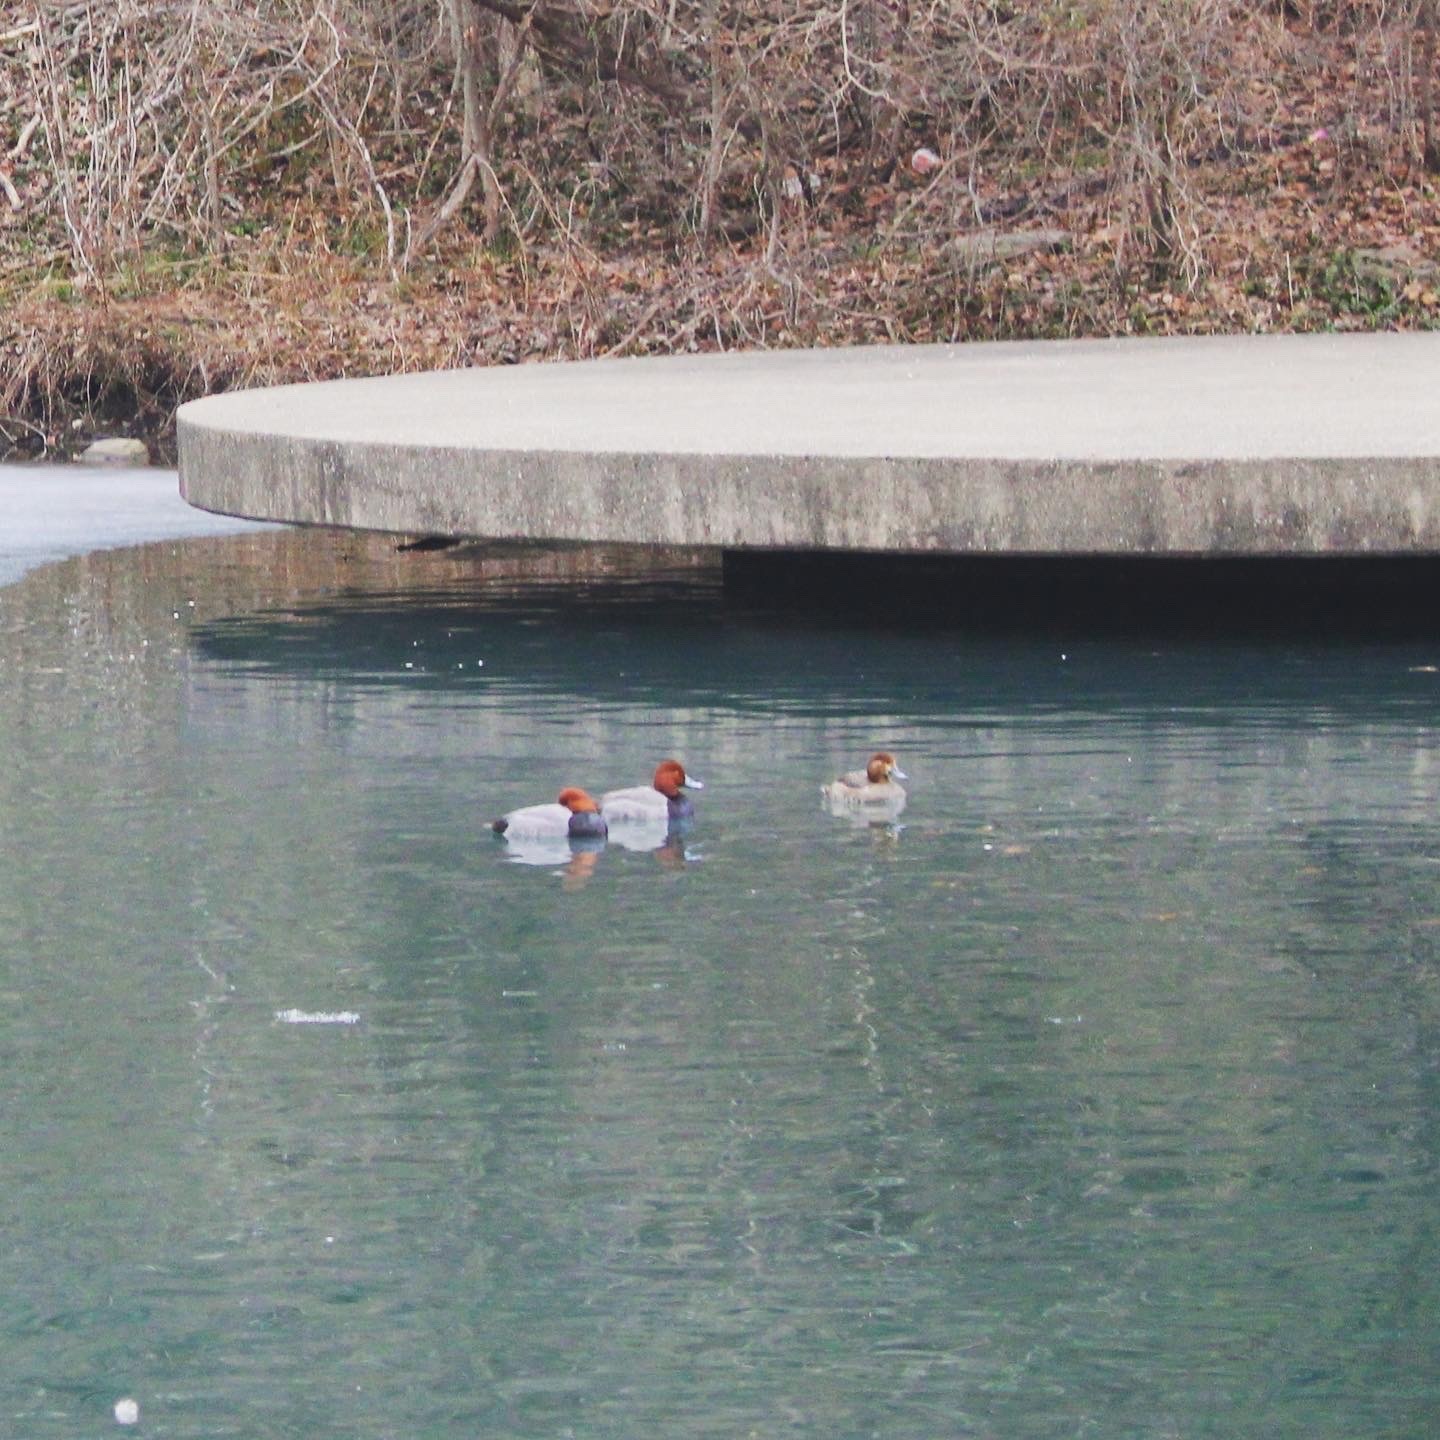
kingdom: Animalia
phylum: Chordata
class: Aves
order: Anseriformes
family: Anatidae
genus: Aythya
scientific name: Aythya americana
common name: Redhead
